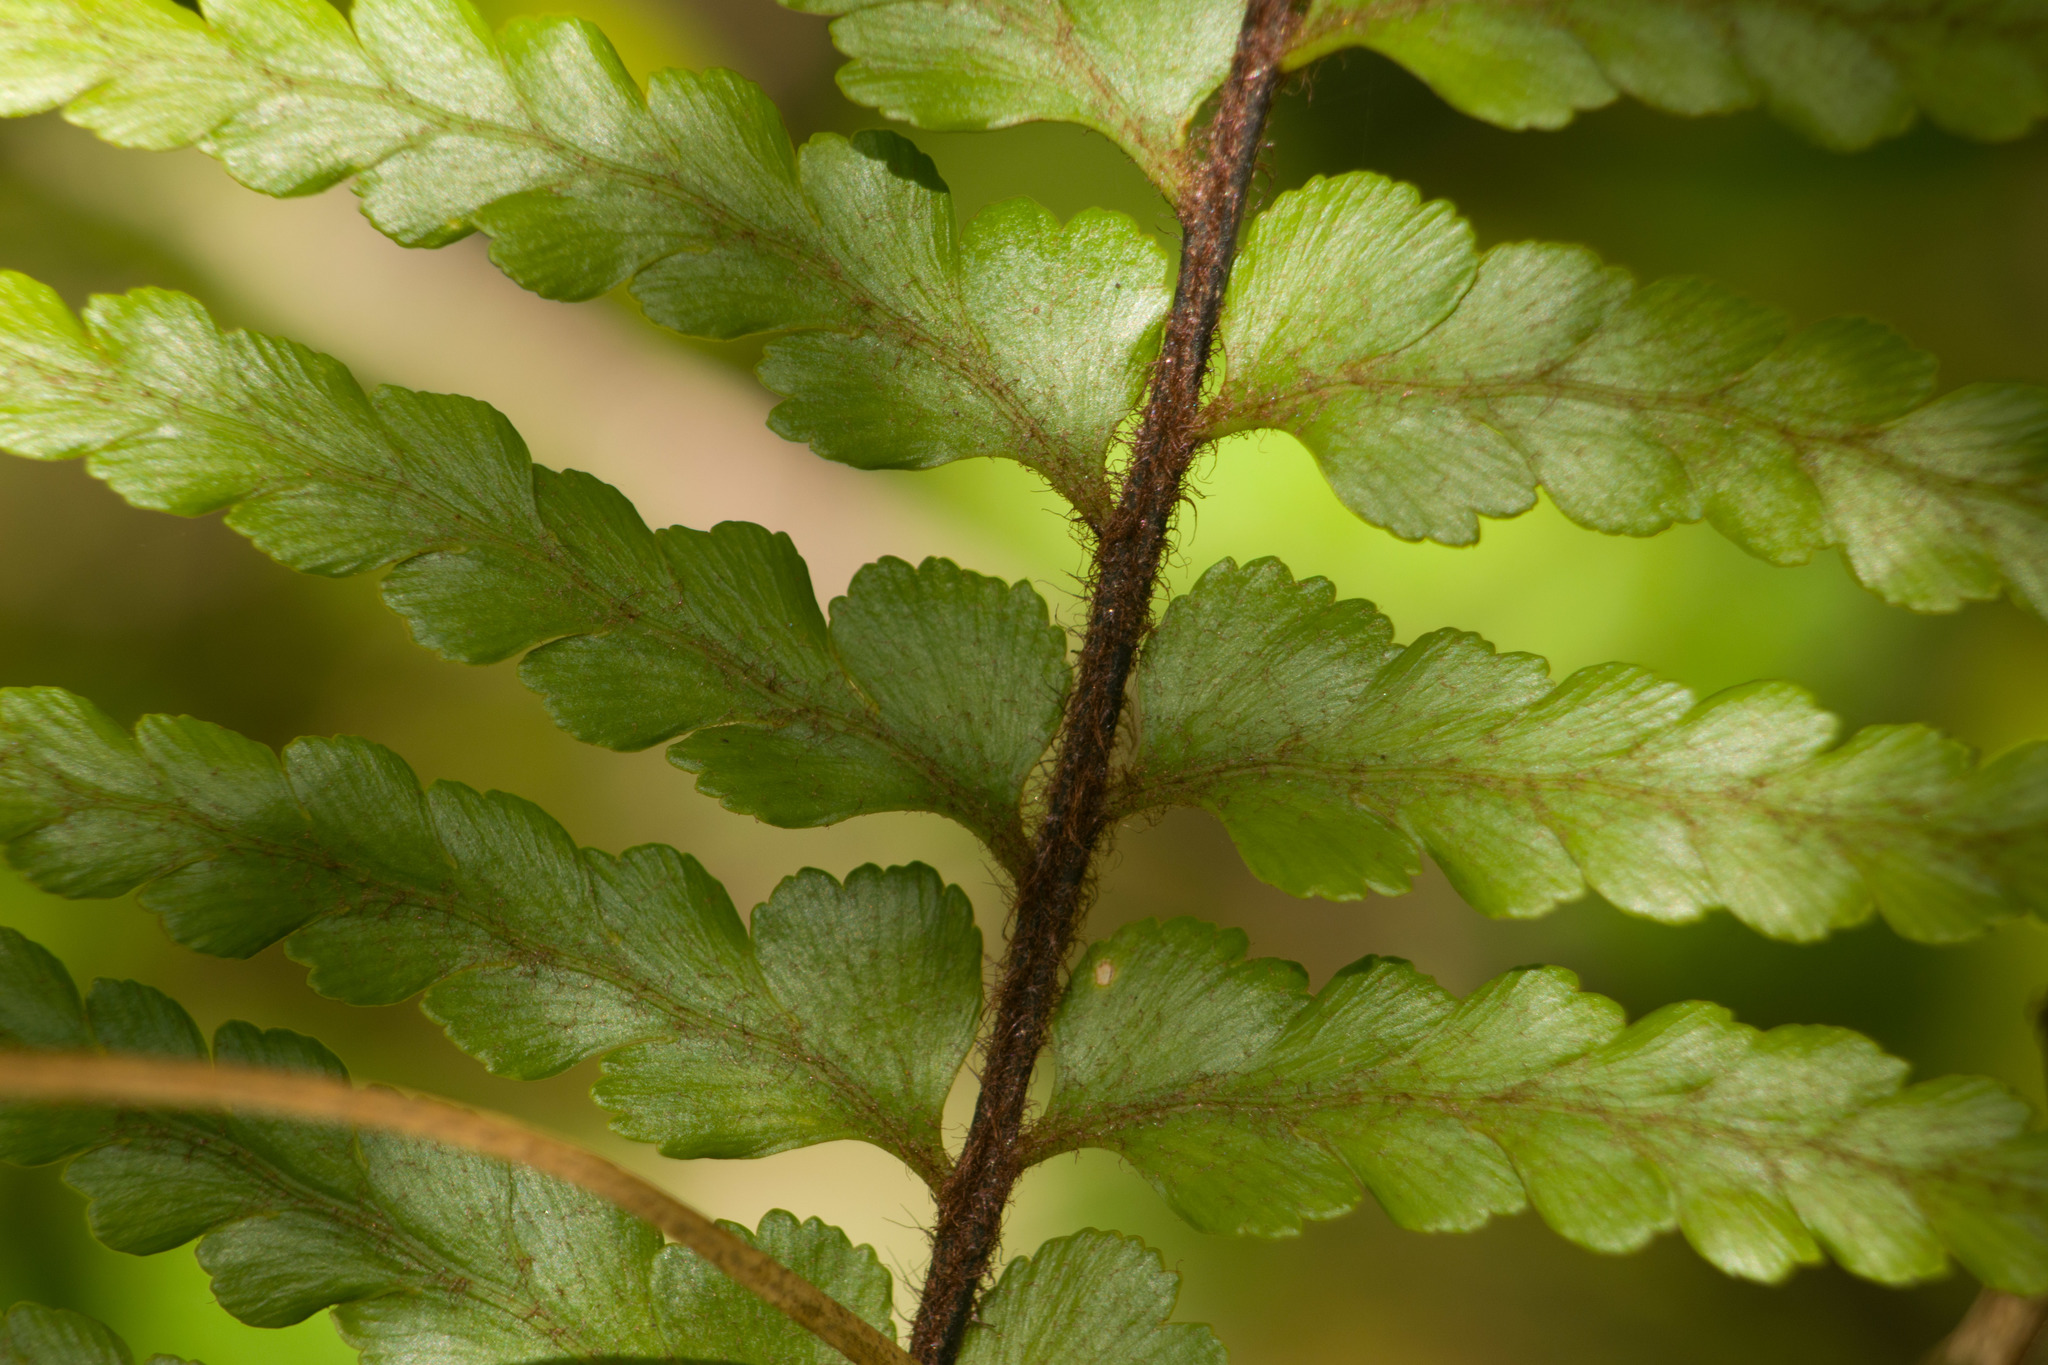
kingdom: Plantae
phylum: Tracheophyta
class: Polypodiopsida
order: Polypodiales
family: Aspleniaceae
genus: Asplenium
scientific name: Asplenium horridum
